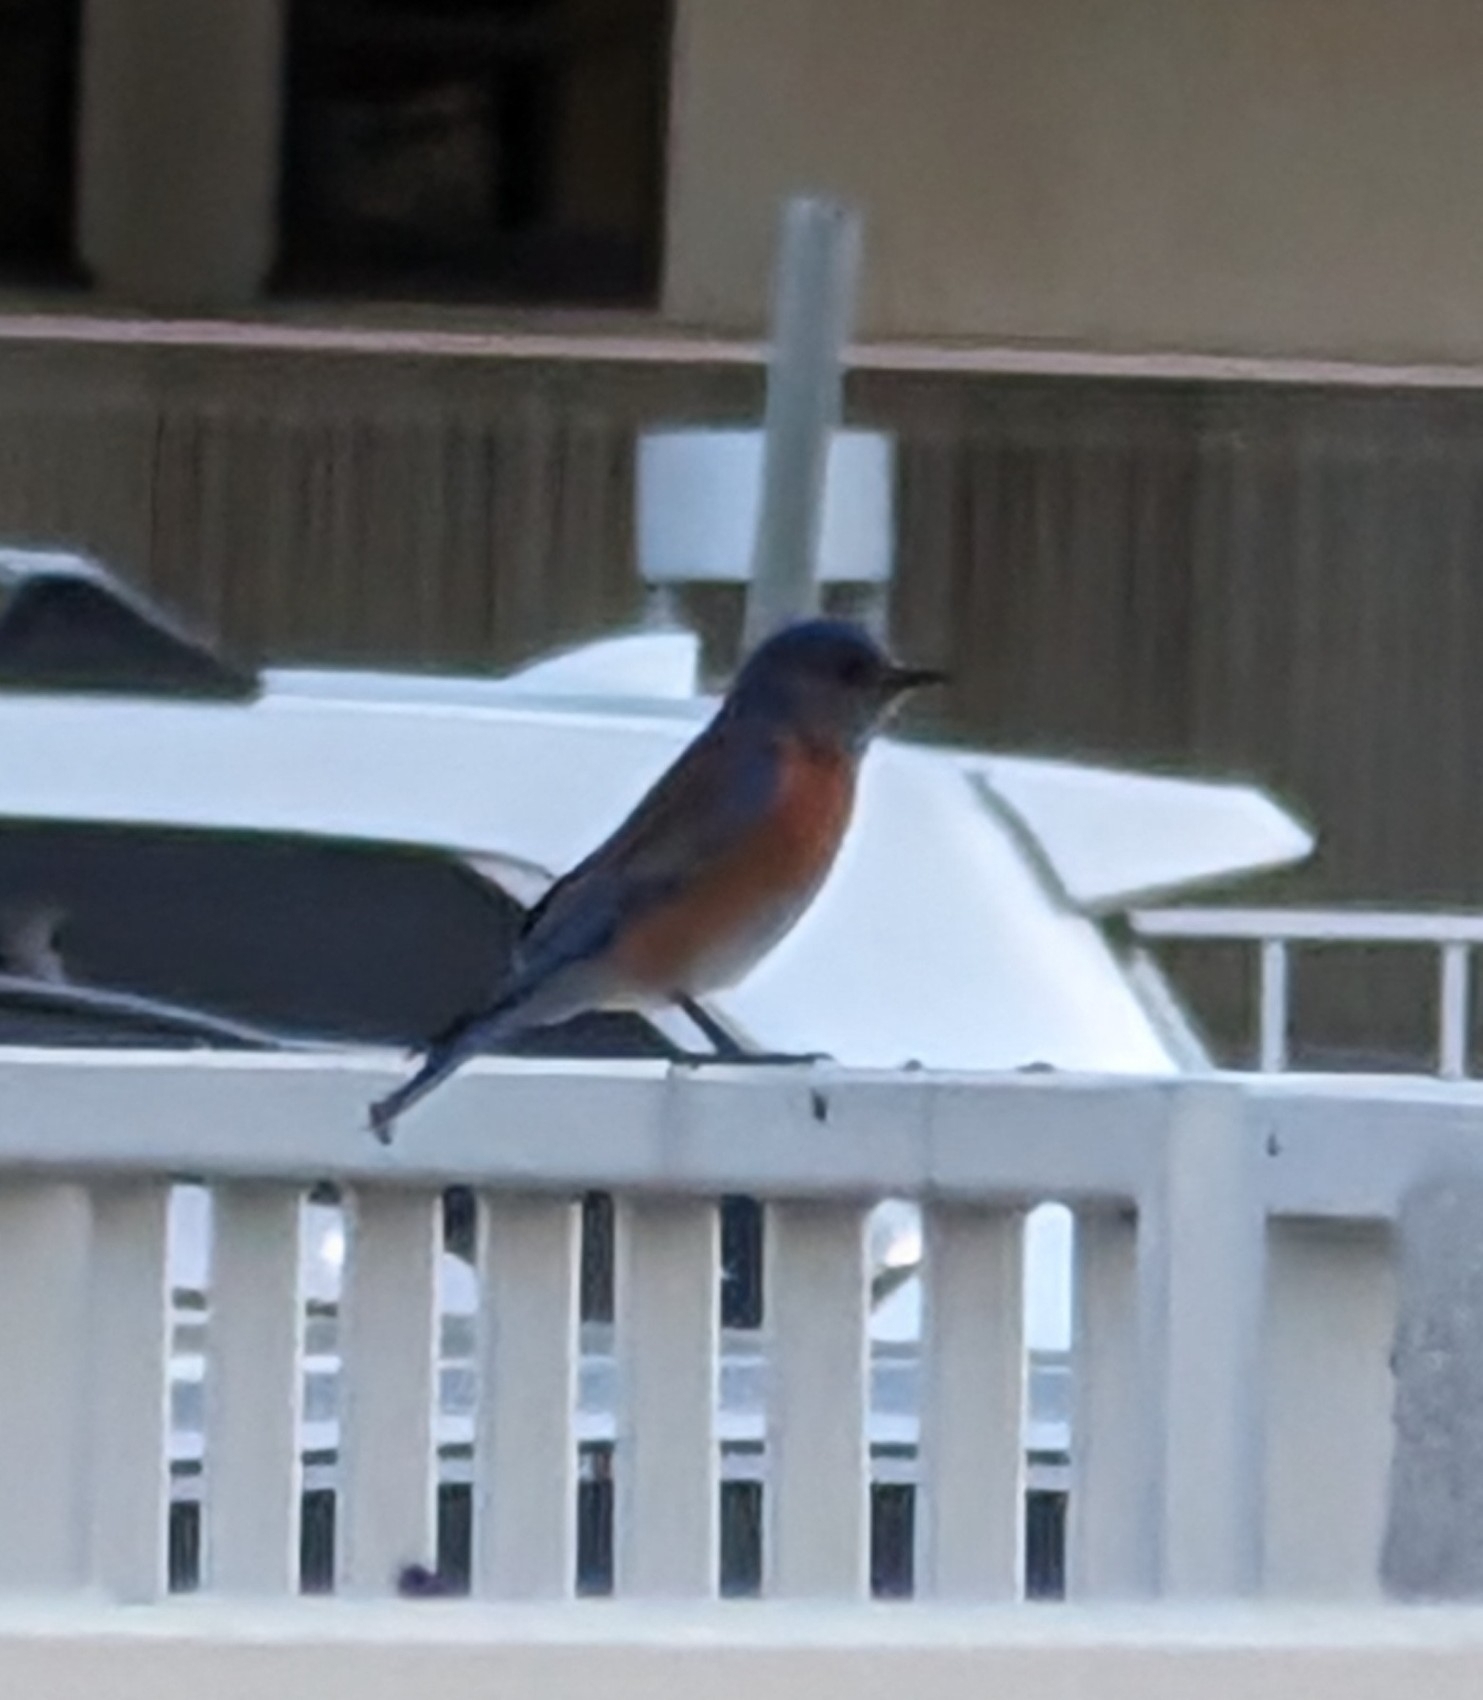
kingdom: Animalia
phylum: Chordata
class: Aves
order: Passeriformes
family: Turdidae
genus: Sialia
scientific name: Sialia mexicana
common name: Western bluebird
